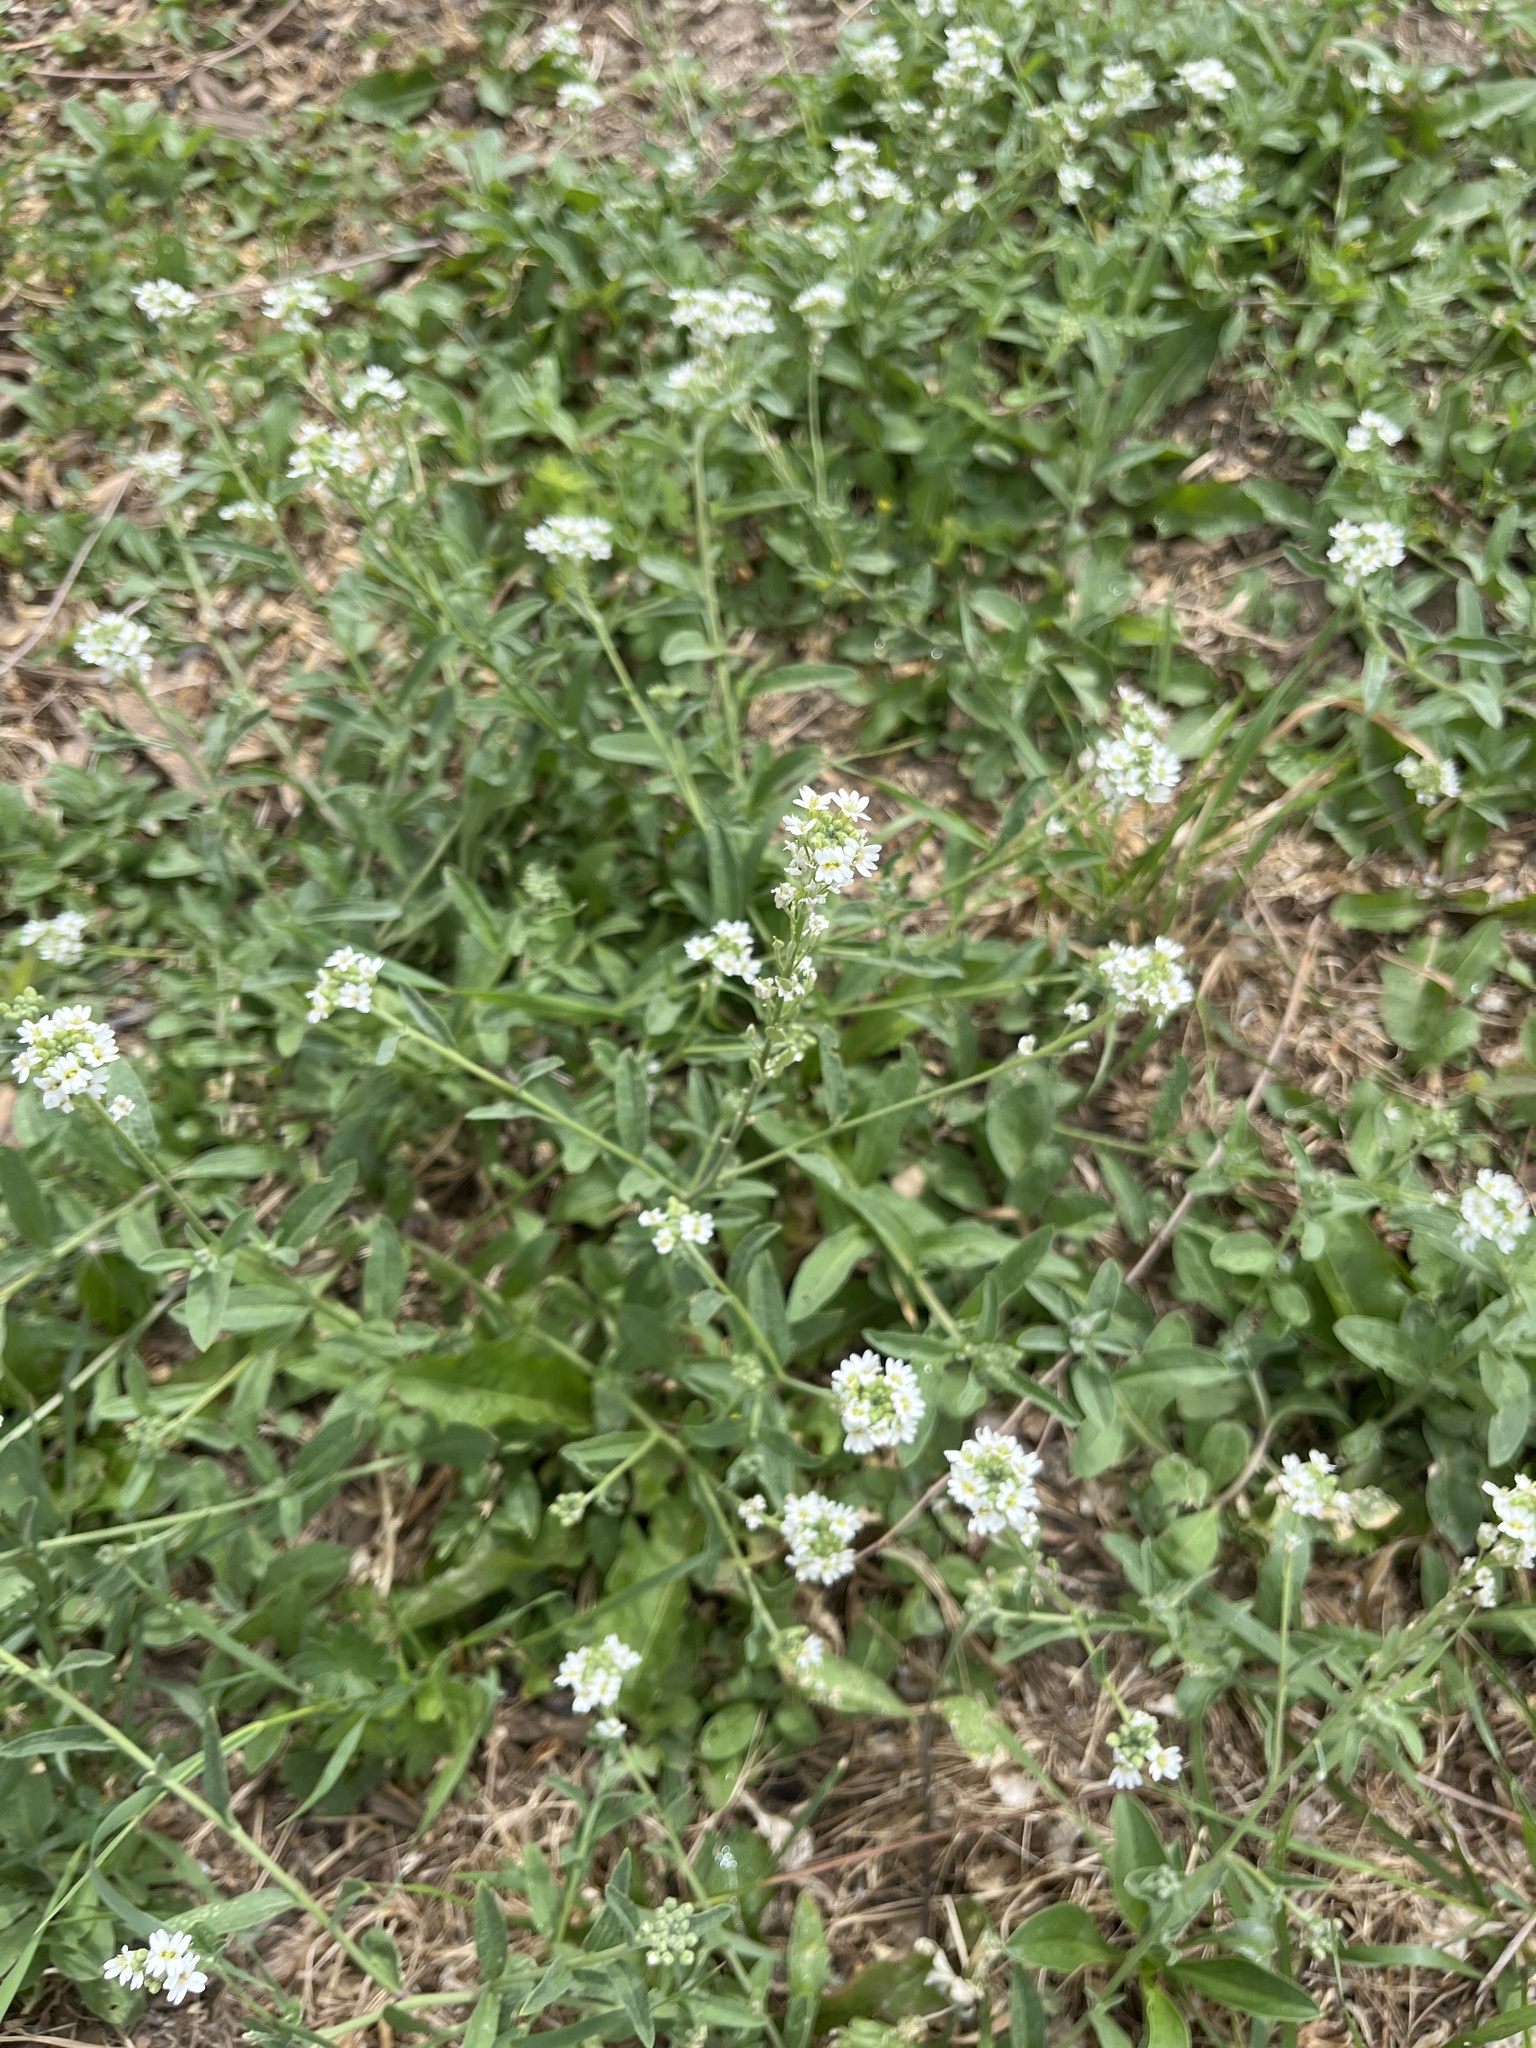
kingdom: Plantae
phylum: Tracheophyta
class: Magnoliopsida
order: Brassicales
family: Brassicaceae
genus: Berteroa
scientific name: Berteroa incana
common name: Hoary alison
